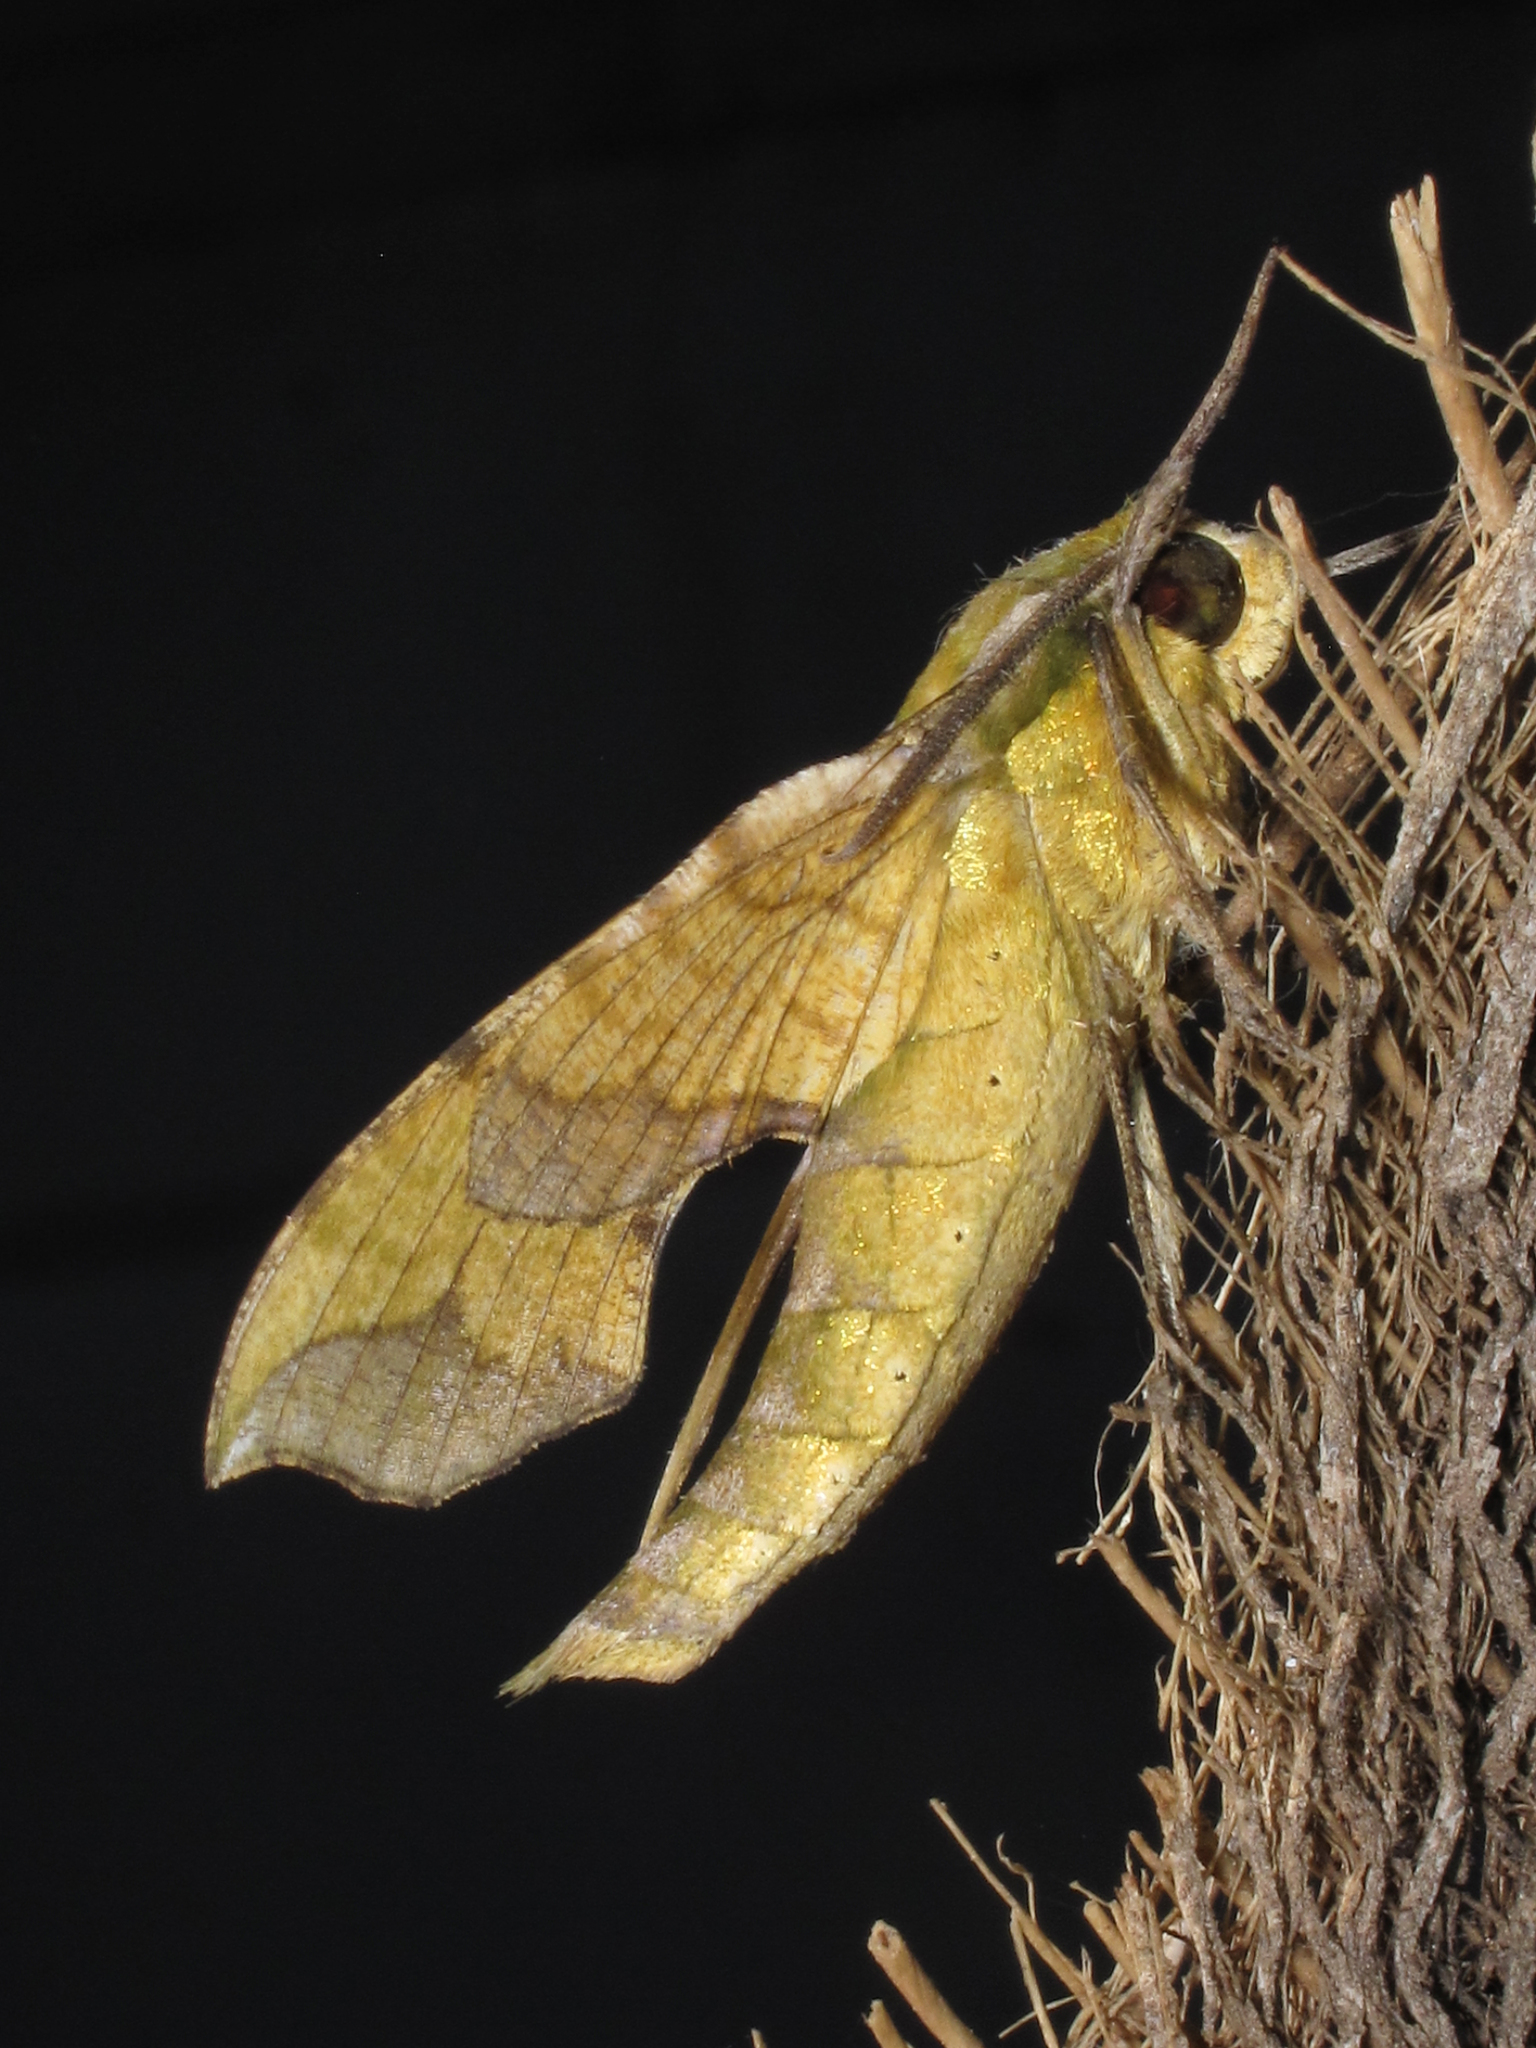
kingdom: Animalia
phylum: Arthropoda
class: Insecta
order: Lepidoptera
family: Sphingidae
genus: Xylophanes
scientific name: Xylophanes pluto
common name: Pluto sphinx
